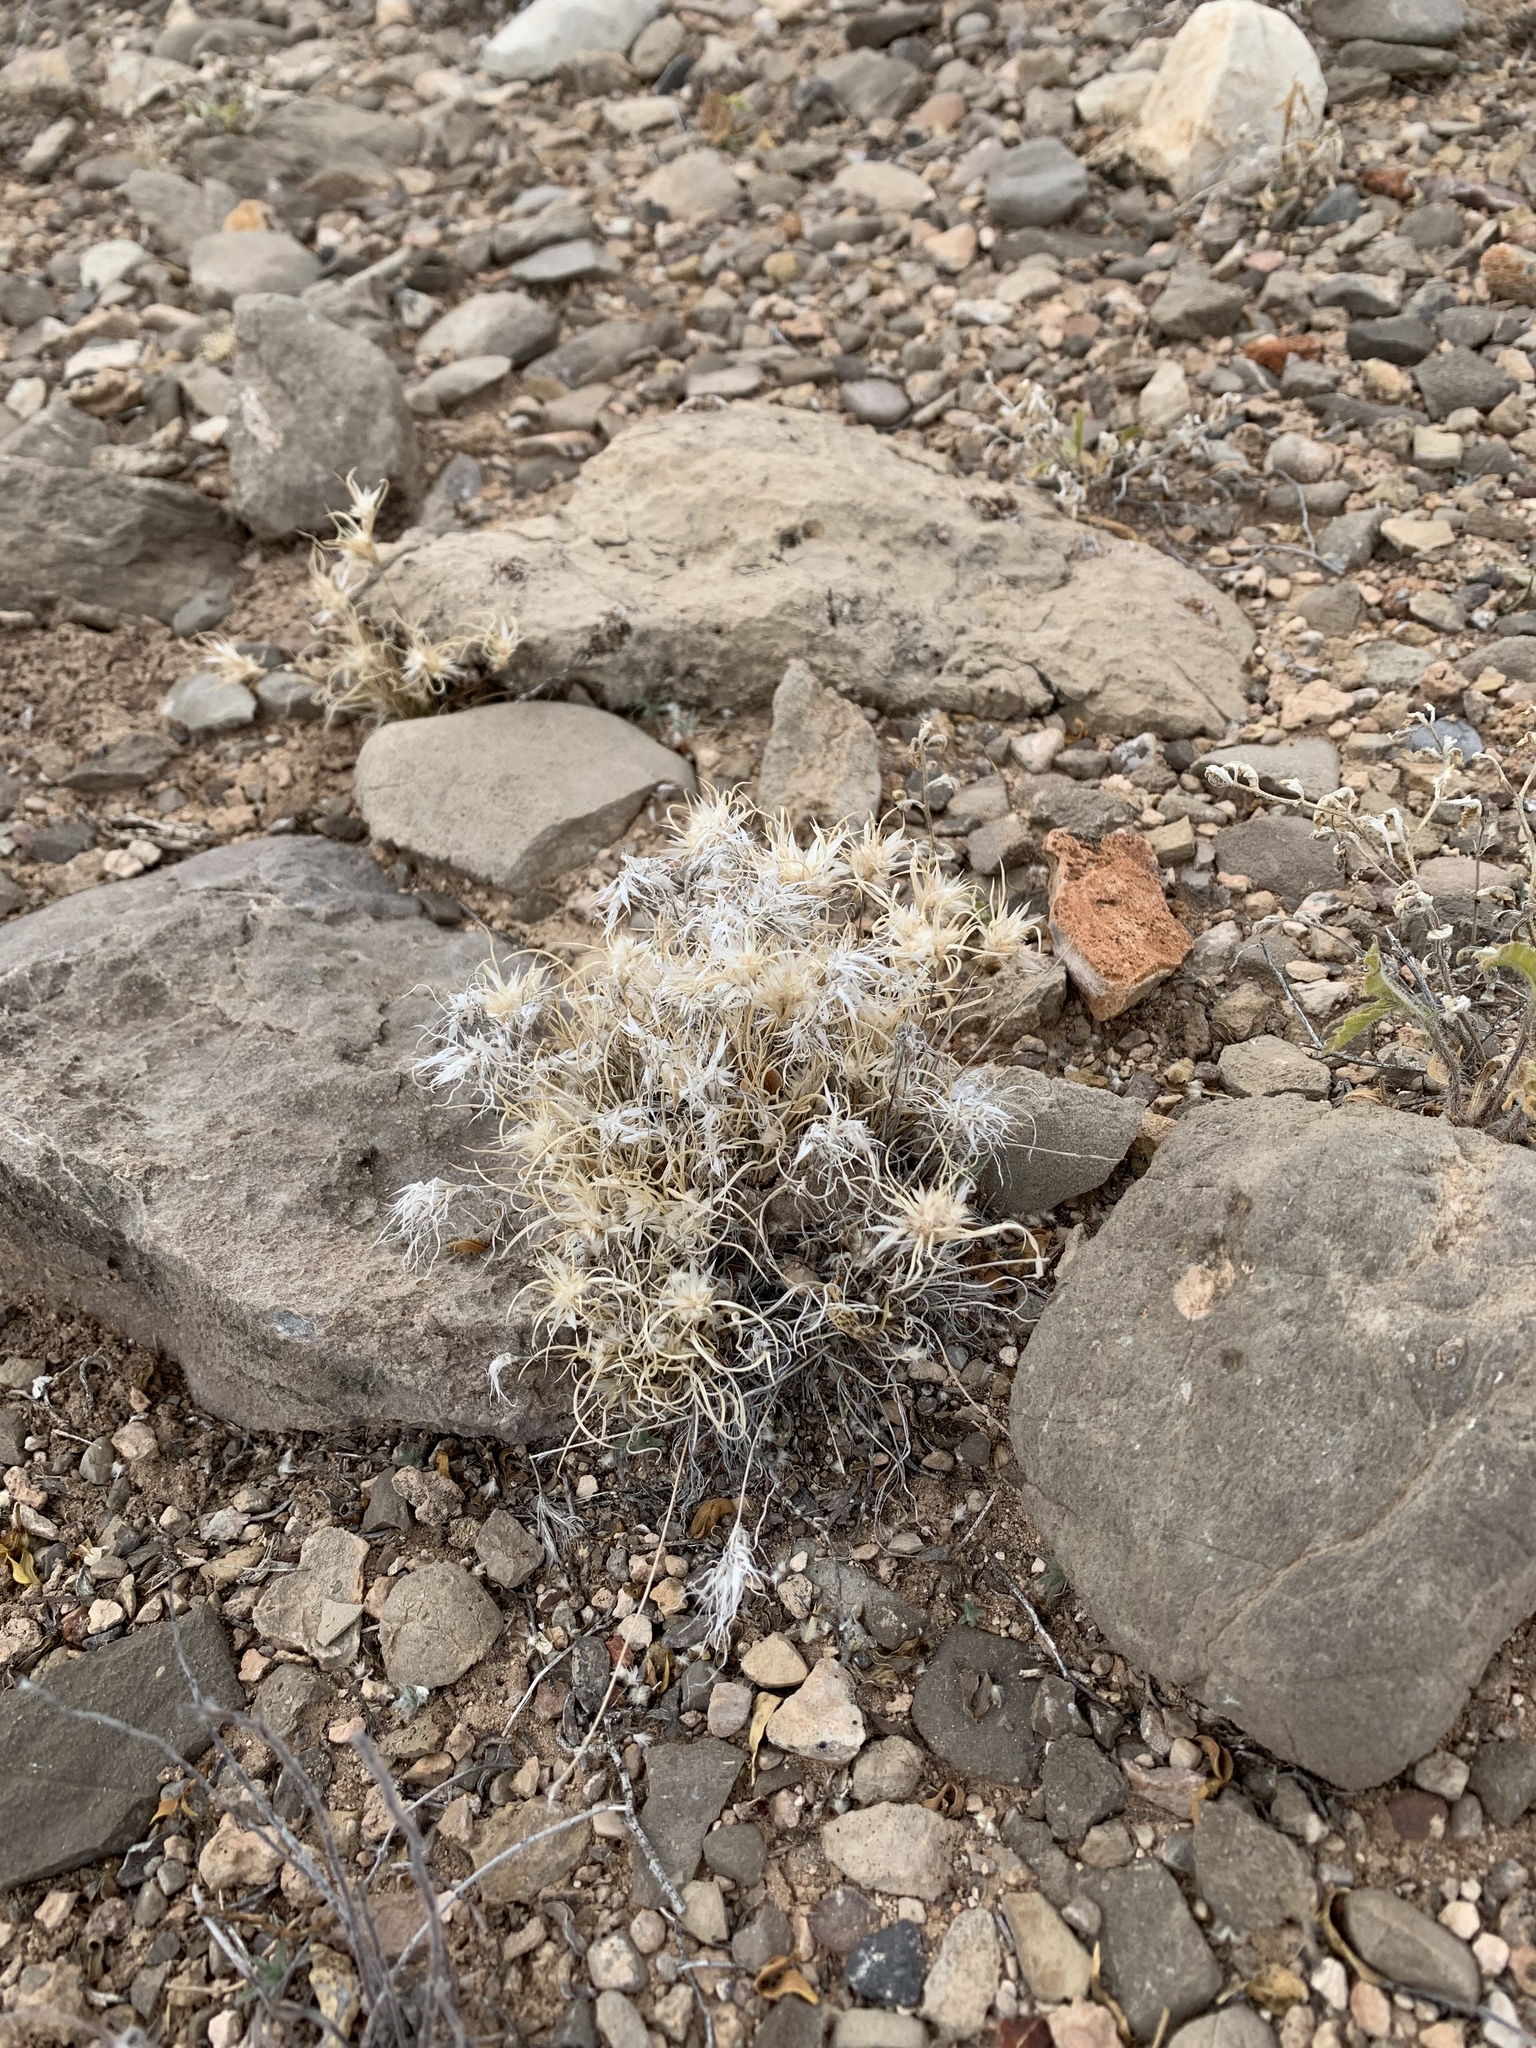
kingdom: Plantae
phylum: Tracheophyta
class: Liliopsida
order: Poales
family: Poaceae
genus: Dasyochloa
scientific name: Dasyochloa pulchella
